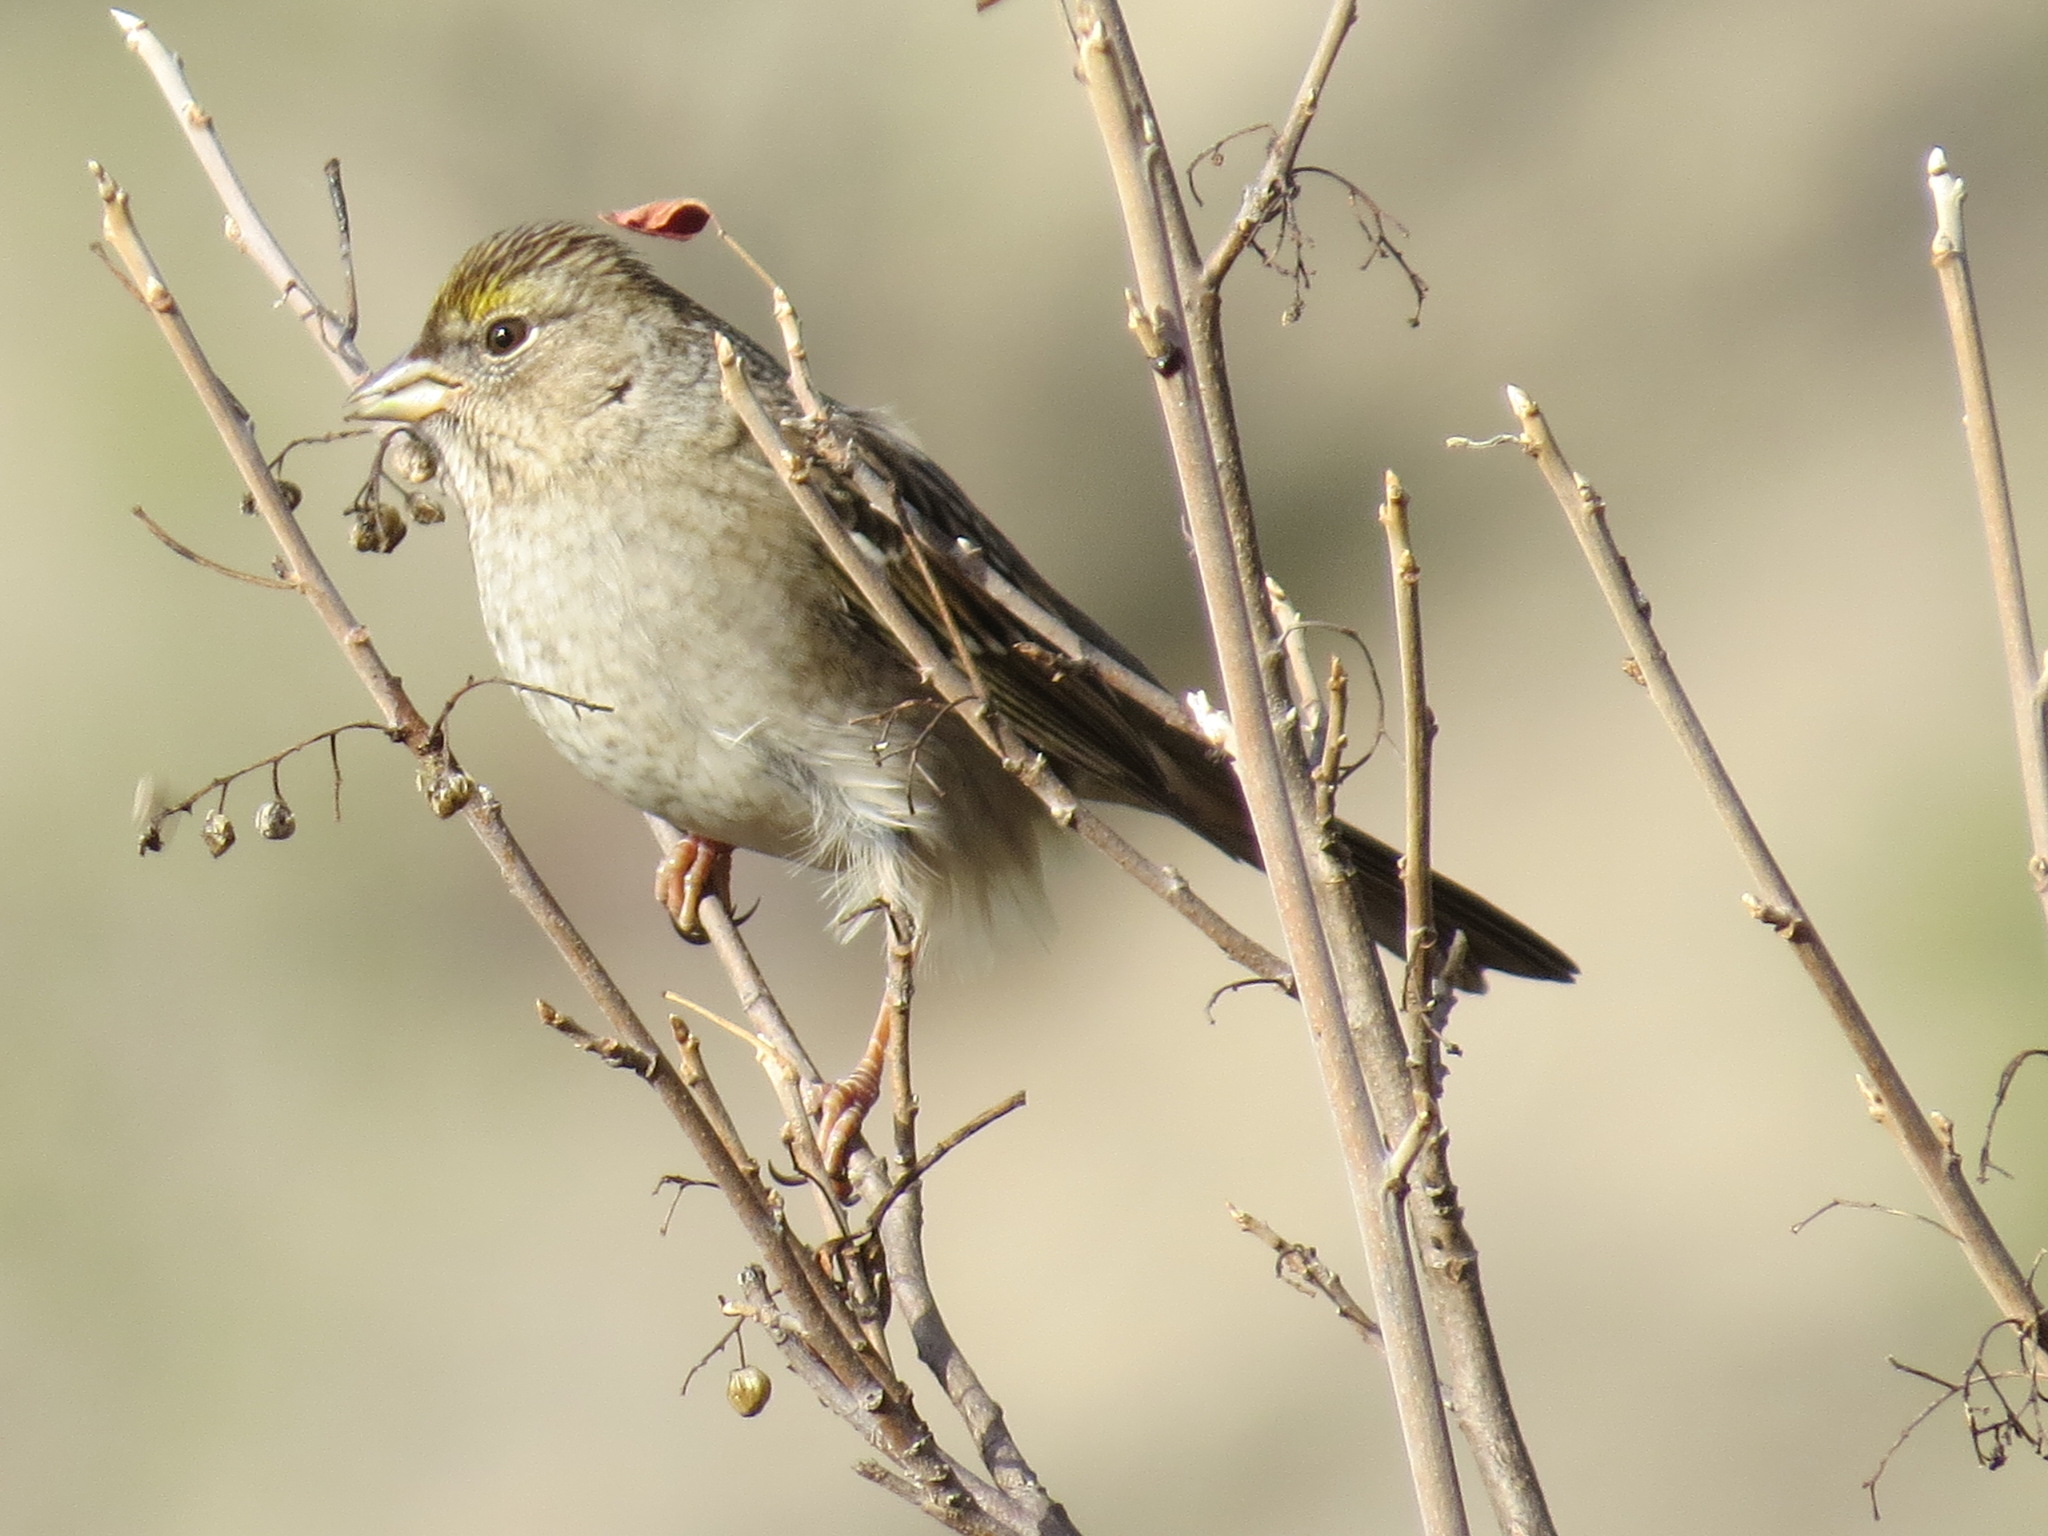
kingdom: Animalia
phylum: Chordata
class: Aves
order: Passeriformes
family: Passerellidae
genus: Zonotrichia
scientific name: Zonotrichia atricapilla
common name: Golden-crowned sparrow
